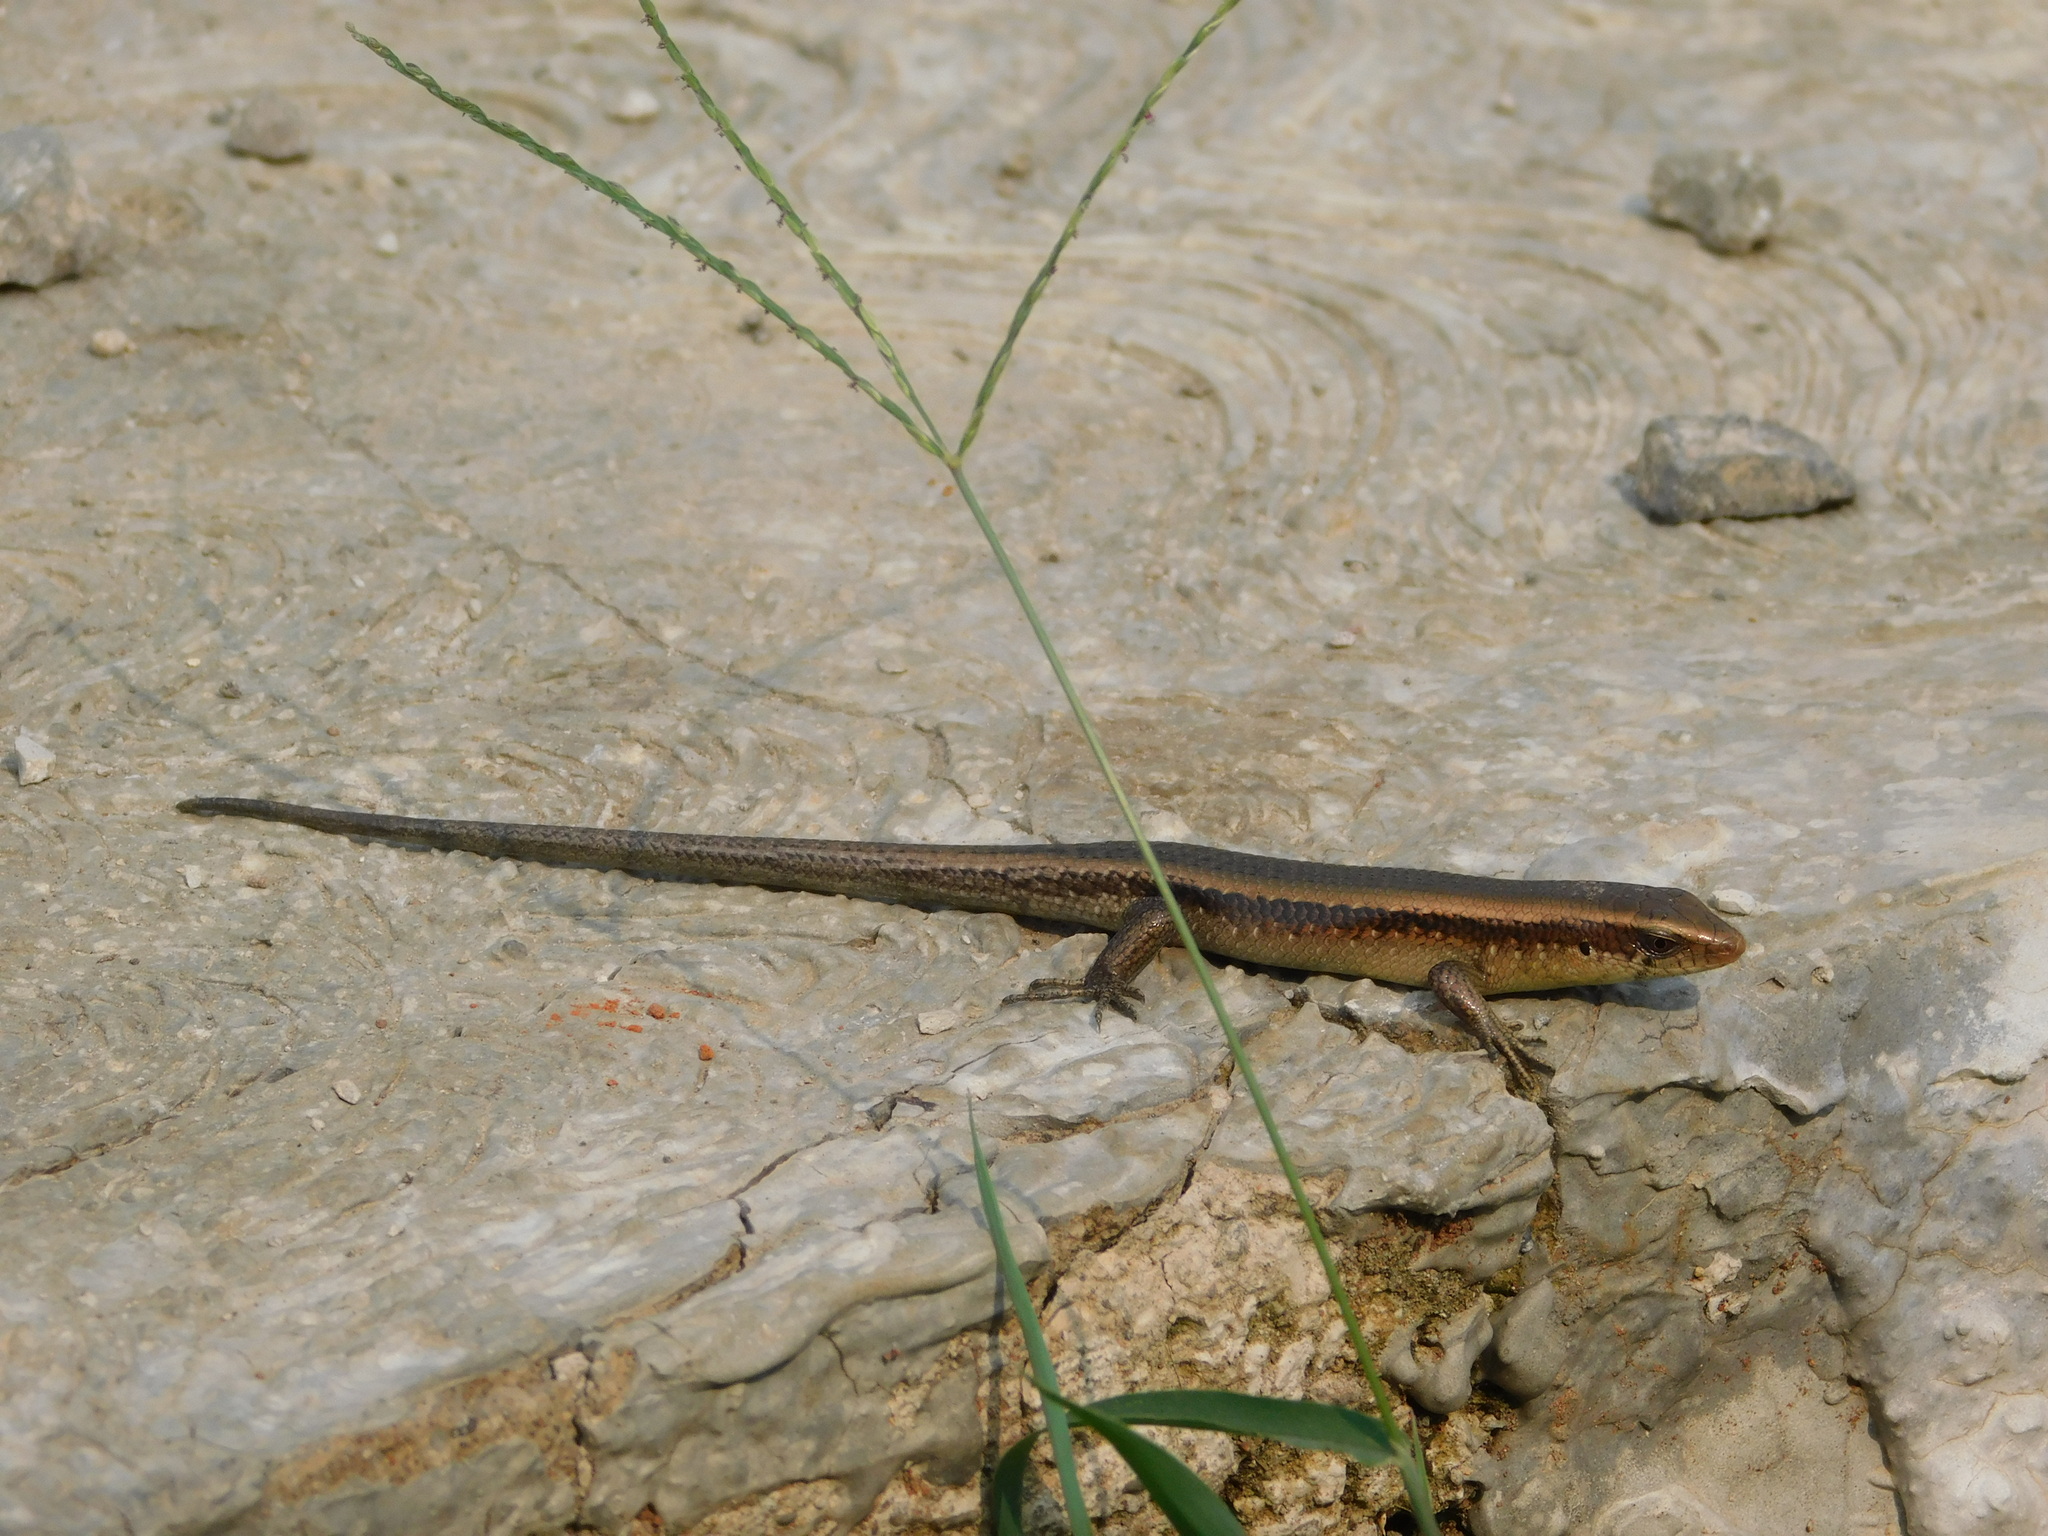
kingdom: Animalia
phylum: Chordata
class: Squamata
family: Scincidae
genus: Eutropis
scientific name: Eutropis multifasciata
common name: Common mabuya
